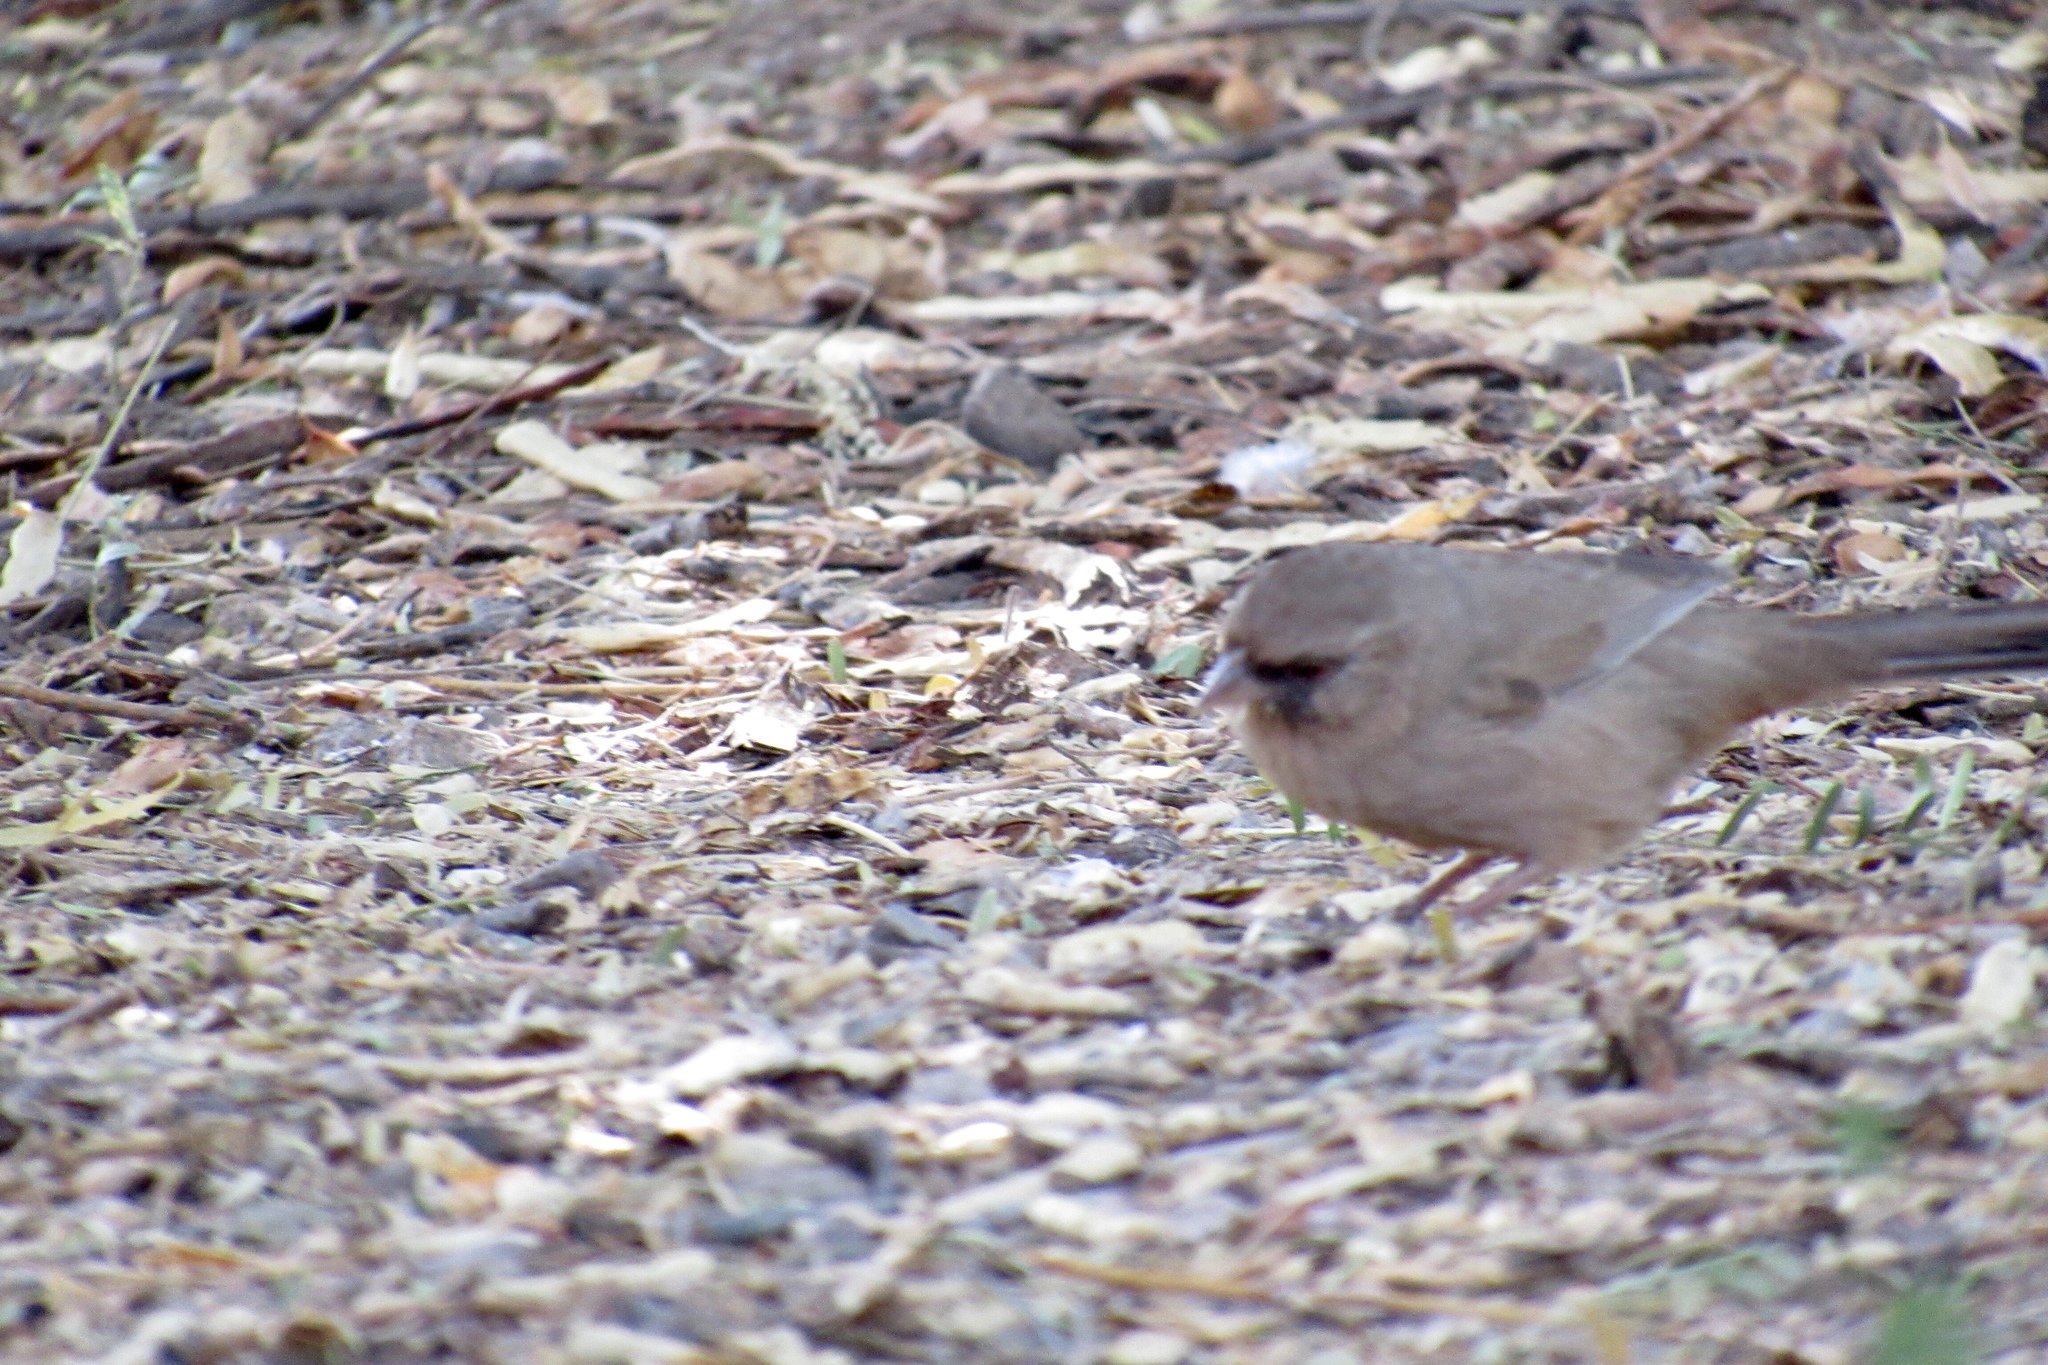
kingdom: Animalia
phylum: Chordata
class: Aves
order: Passeriformes
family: Passerellidae
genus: Melozone
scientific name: Melozone aberti
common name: Abert's towhee
